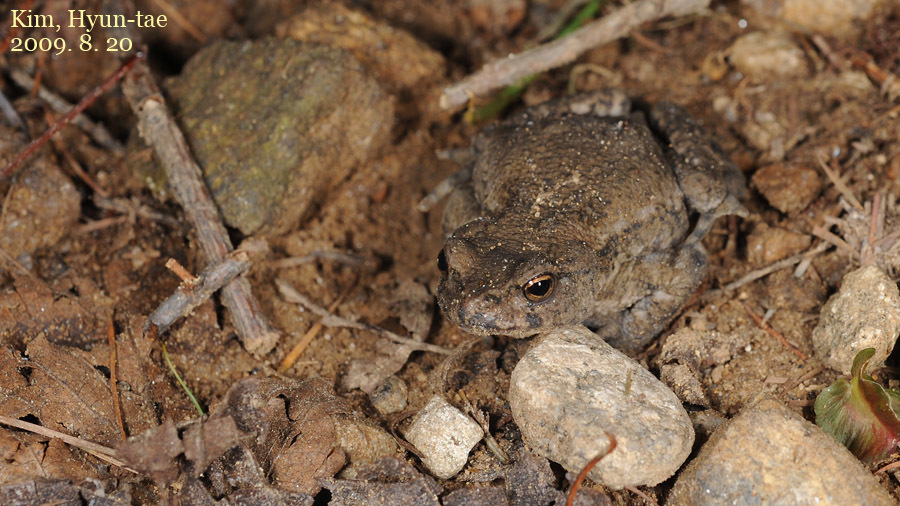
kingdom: Animalia
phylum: Chordata
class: Amphibia
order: Anura
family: Bufonidae
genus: Bufo
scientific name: Bufo stejnegeri
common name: Water toad
